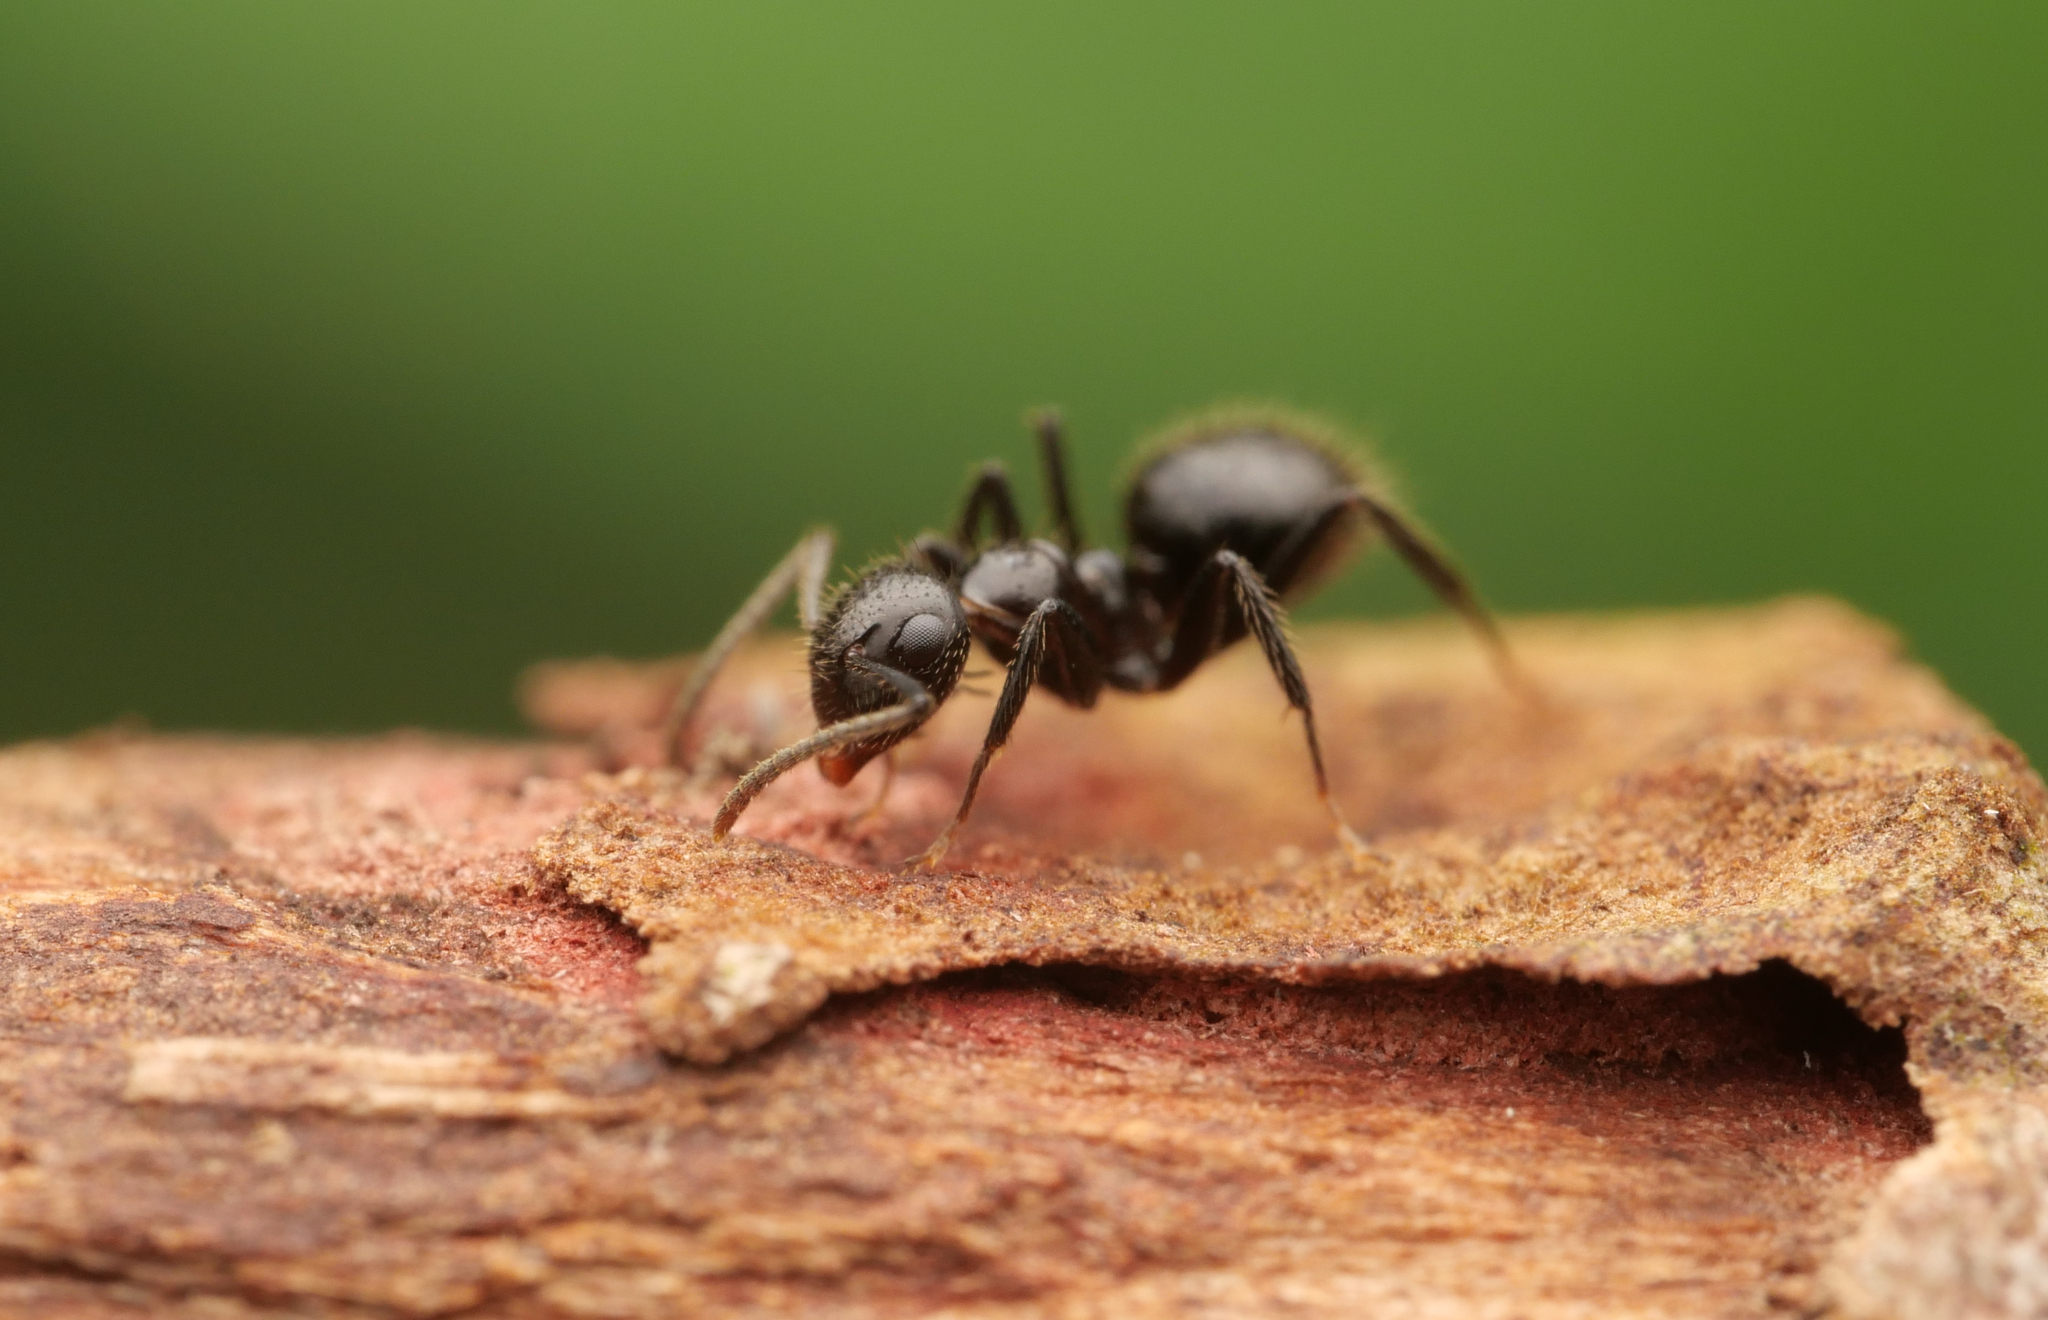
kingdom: Animalia
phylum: Arthropoda
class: Insecta
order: Hymenoptera
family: Formicidae
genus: Camponotus
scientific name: Camponotus vitreus
